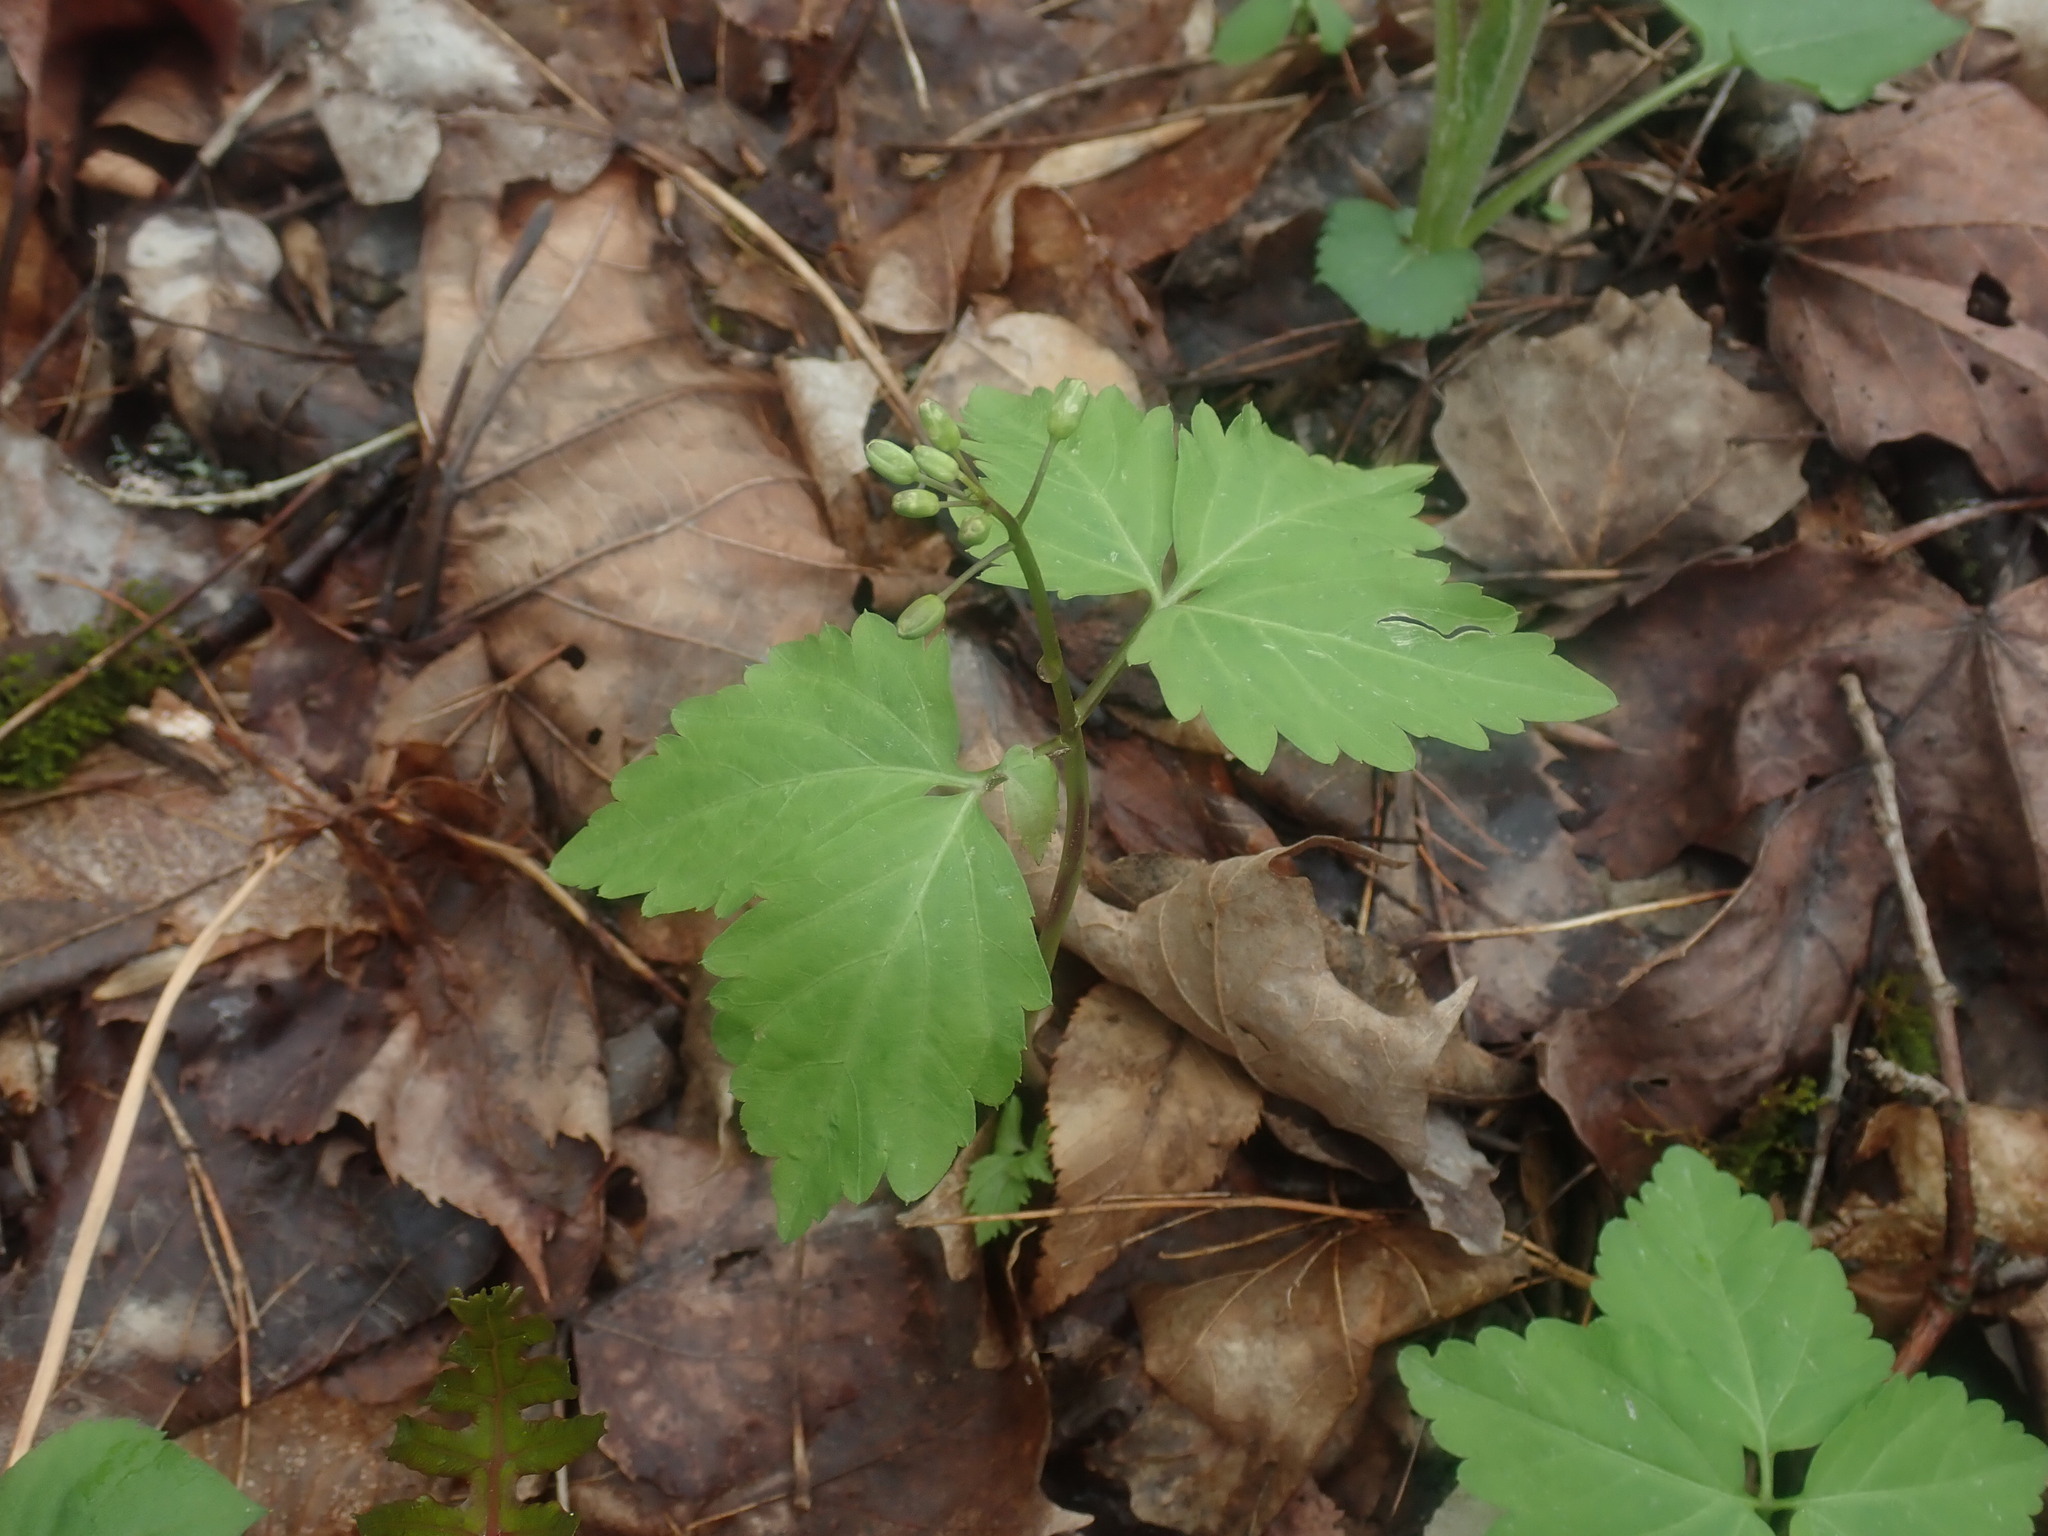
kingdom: Plantae
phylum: Tracheophyta
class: Magnoliopsida
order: Brassicales
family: Brassicaceae
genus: Cardamine
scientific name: Cardamine diphylla
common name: Broad-leaved toothwort
